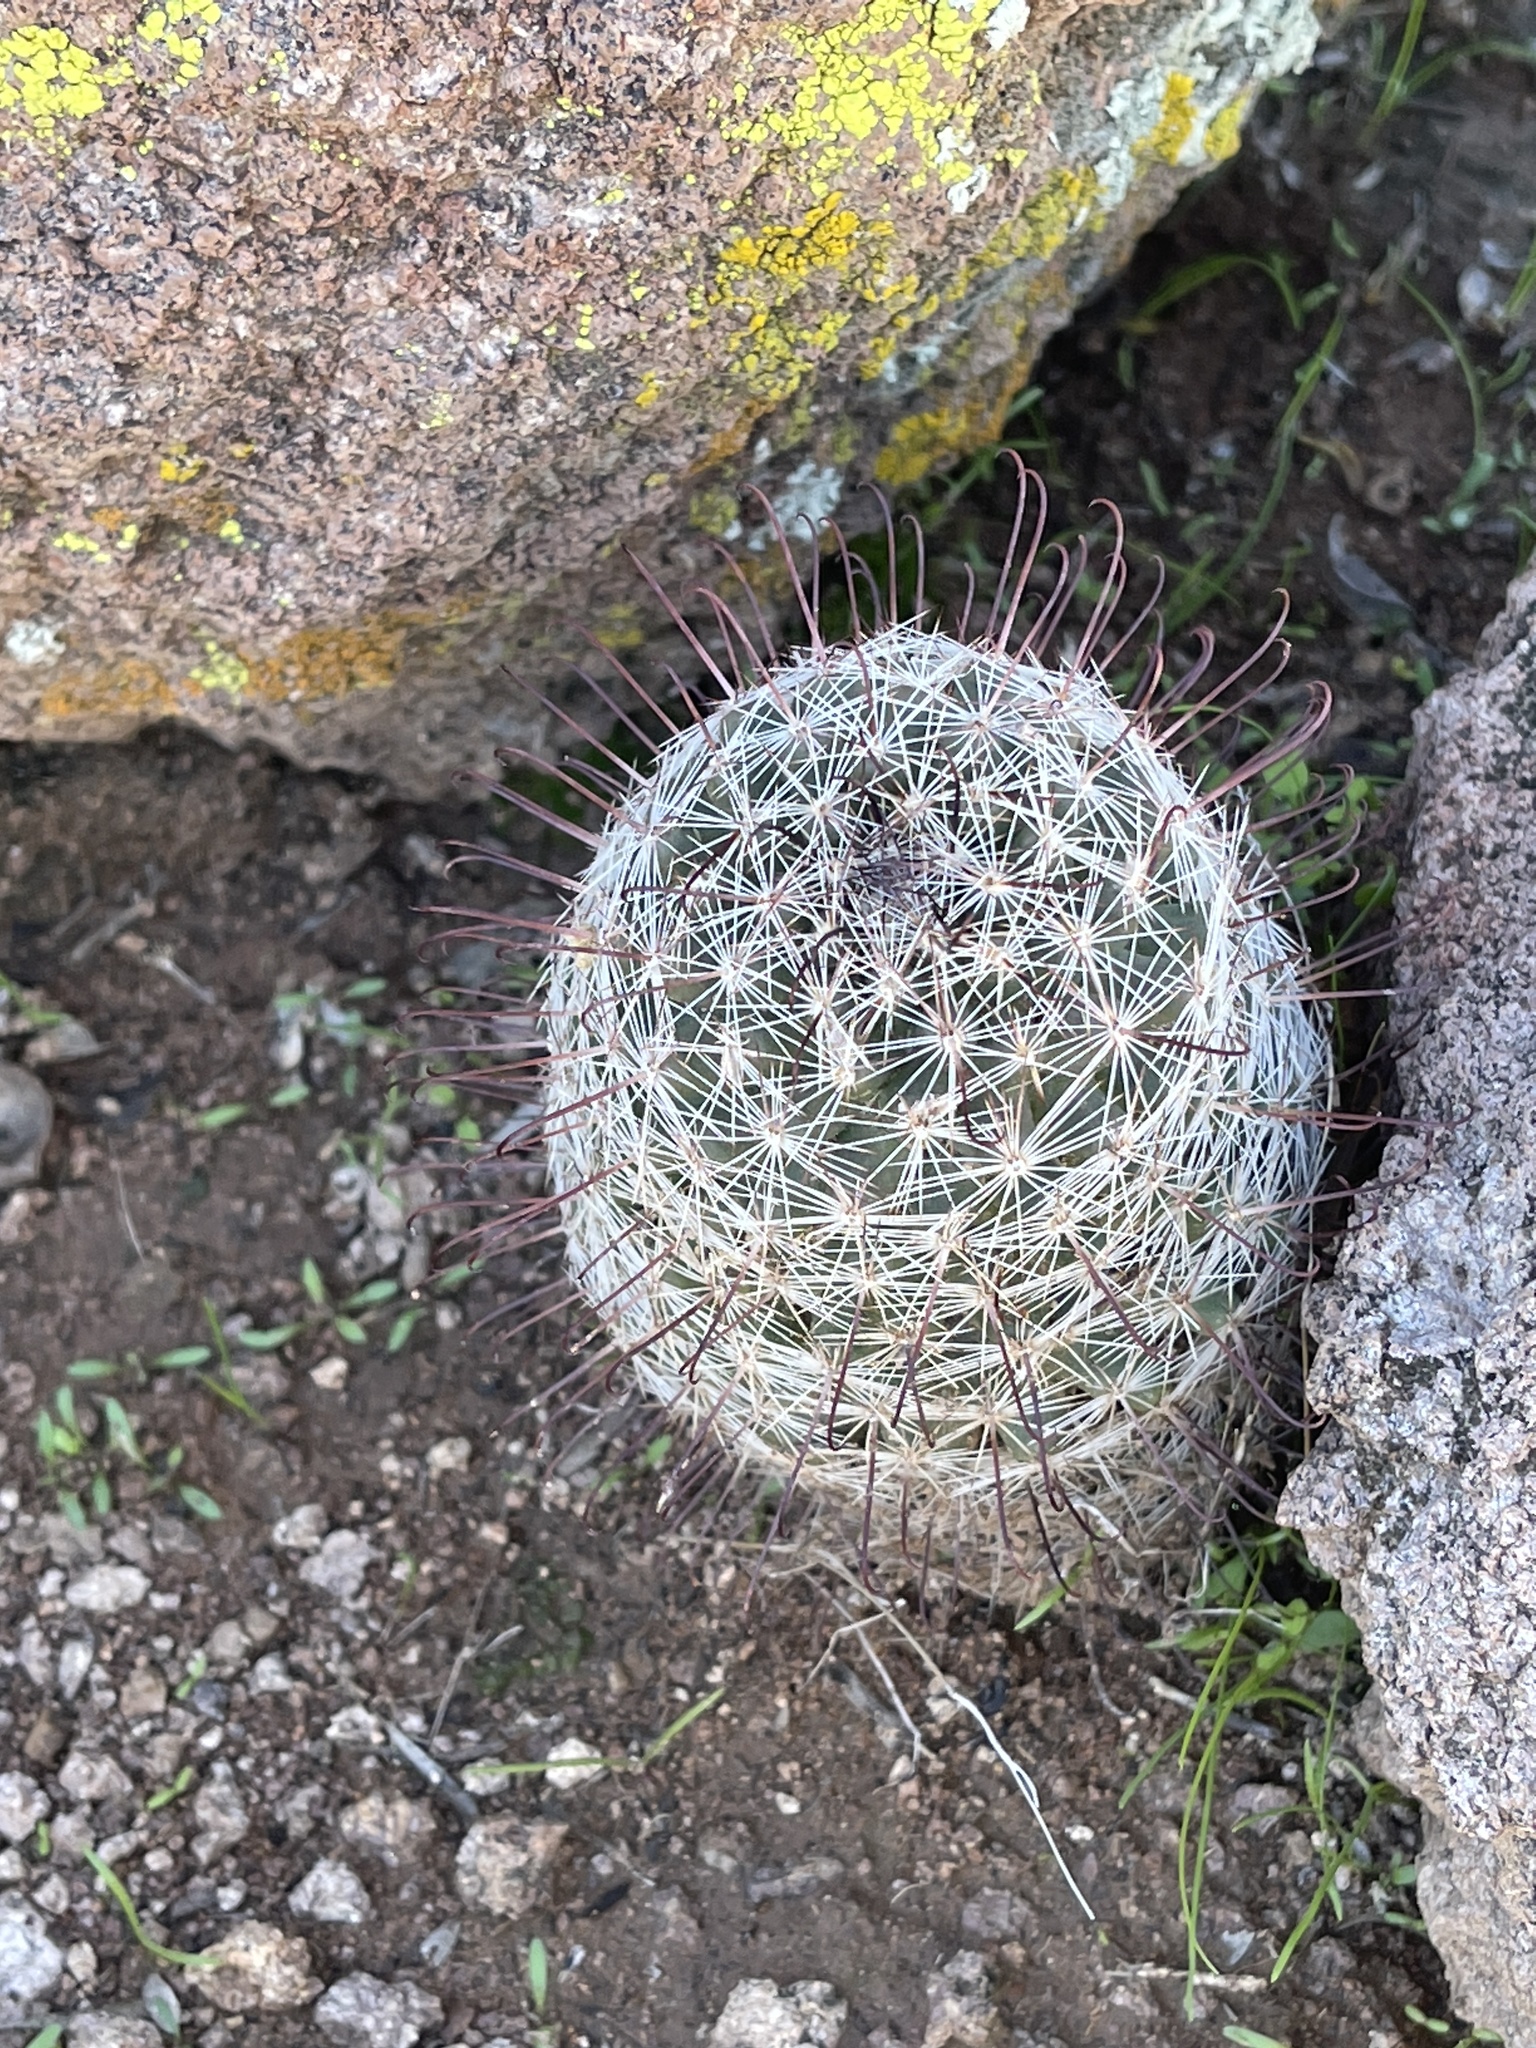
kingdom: Plantae
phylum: Tracheophyta
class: Magnoliopsida
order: Caryophyllales
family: Cactaceae
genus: Cochemiea
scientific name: Cochemiea grahamii
